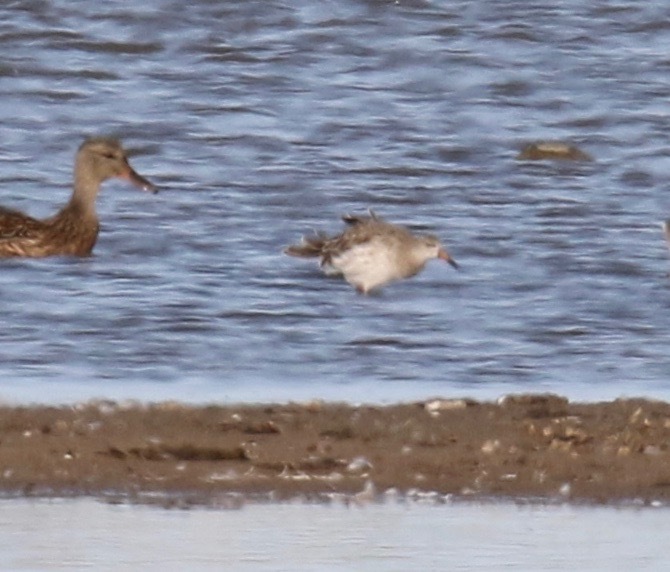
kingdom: Animalia
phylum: Chordata
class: Aves
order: Charadriiformes
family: Scolopacidae
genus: Calidris
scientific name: Calidris pugnax
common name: Ruff
